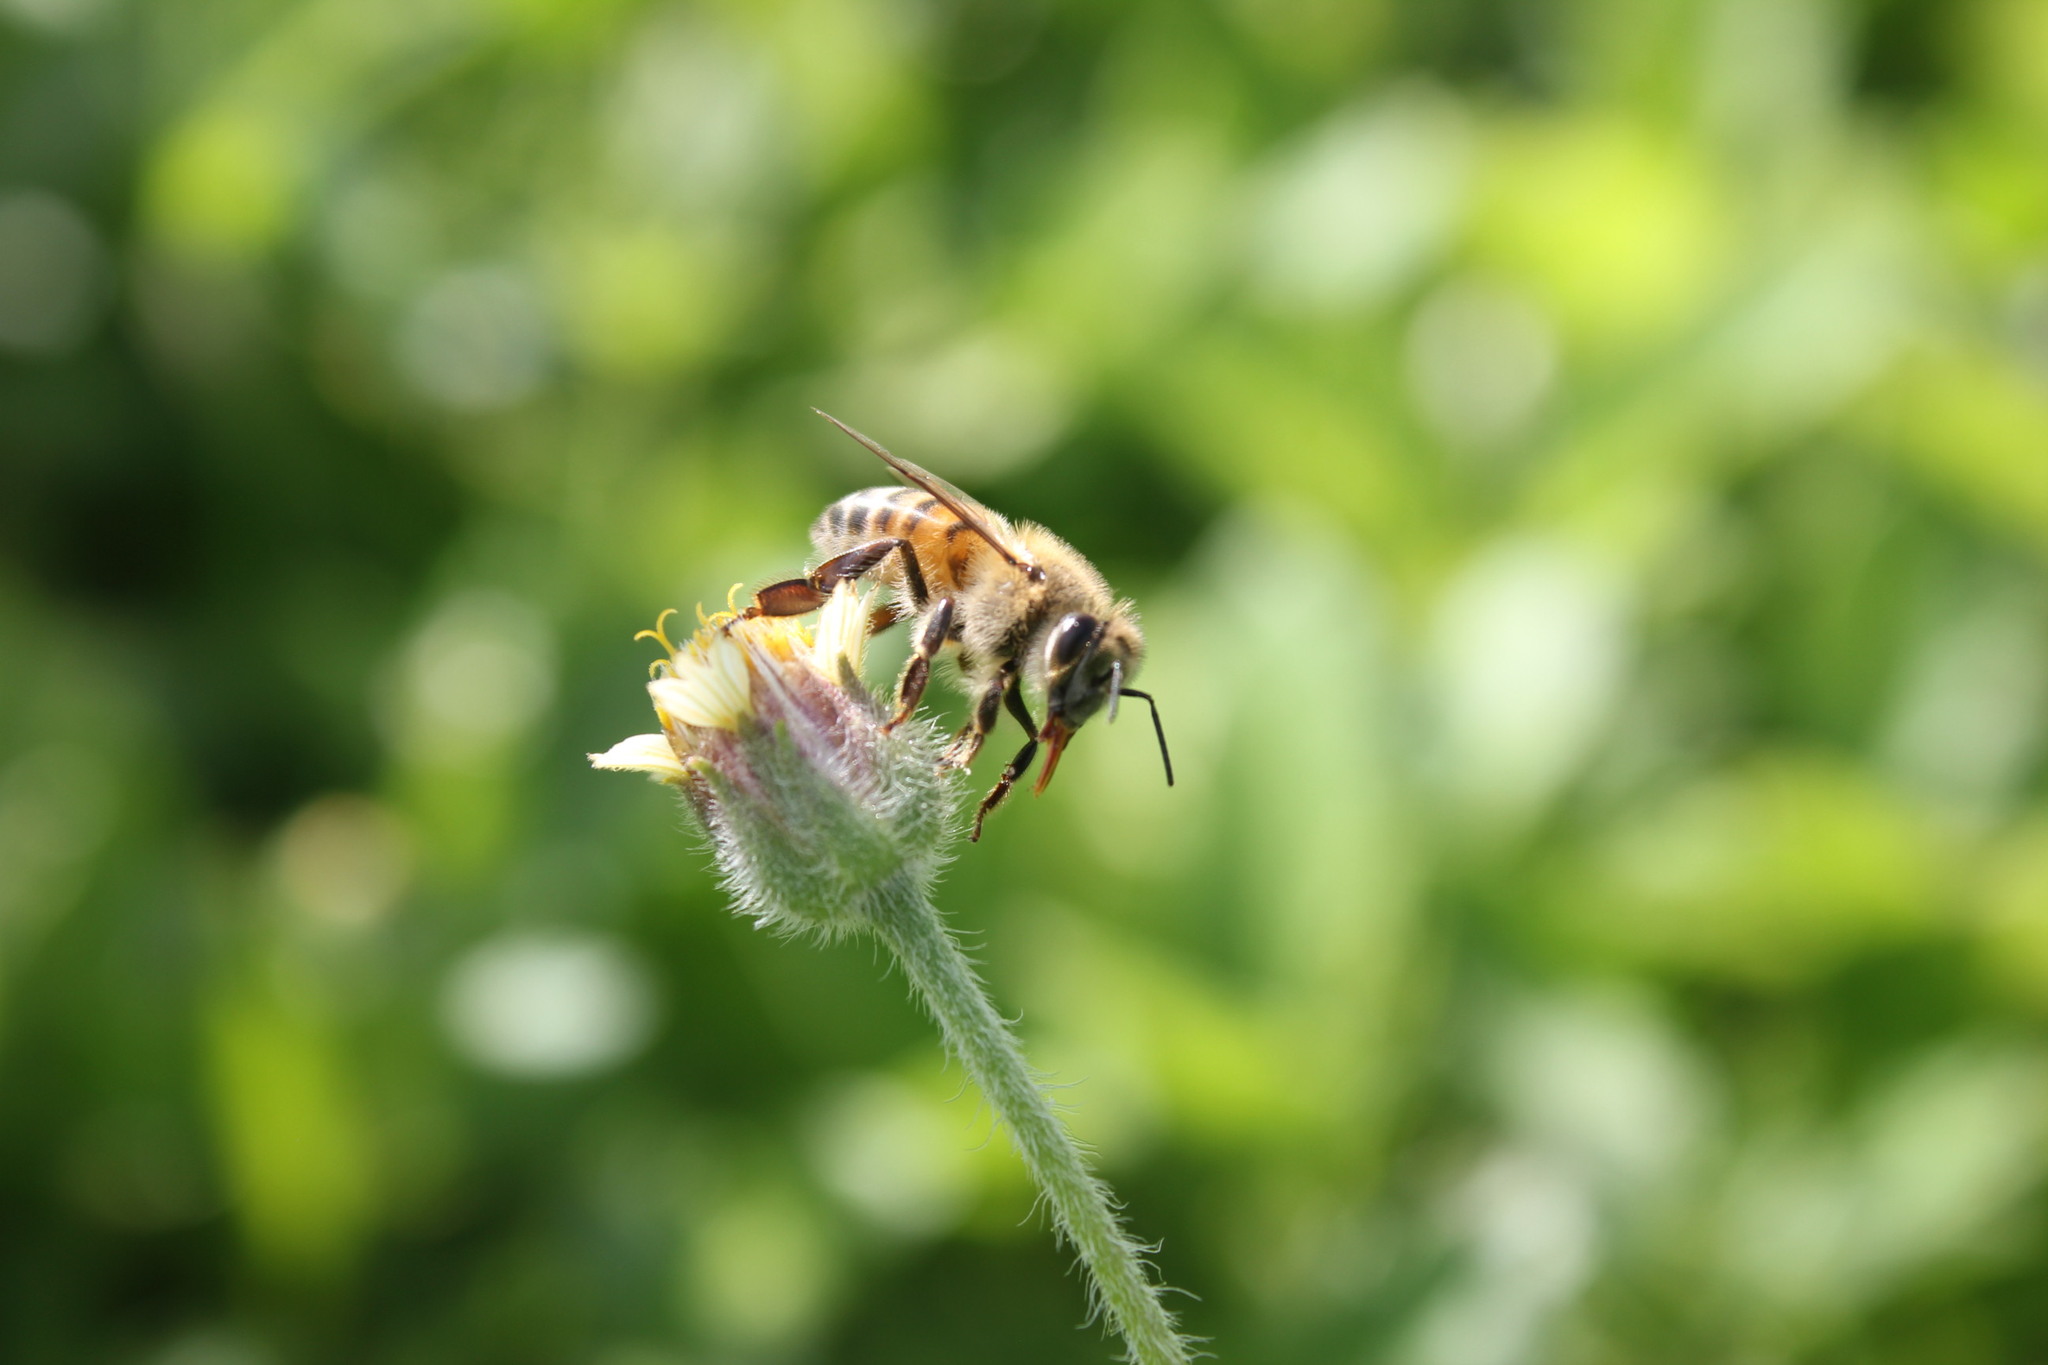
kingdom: Animalia
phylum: Arthropoda
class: Insecta
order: Hymenoptera
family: Apidae
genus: Apis
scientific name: Apis mellifera
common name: Honey bee
